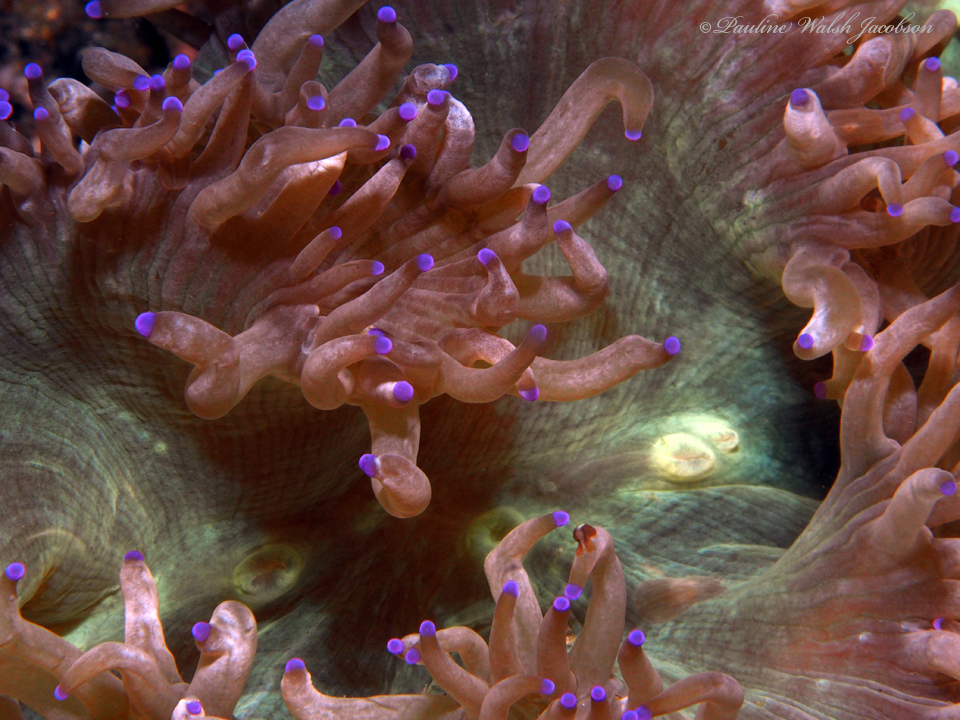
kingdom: Animalia
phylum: Cnidaria
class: Anthozoa
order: Scleractinia
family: Merulinidae
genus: Catalaphyllia
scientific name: Catalaphyllia jardinei
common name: Wonder coral
